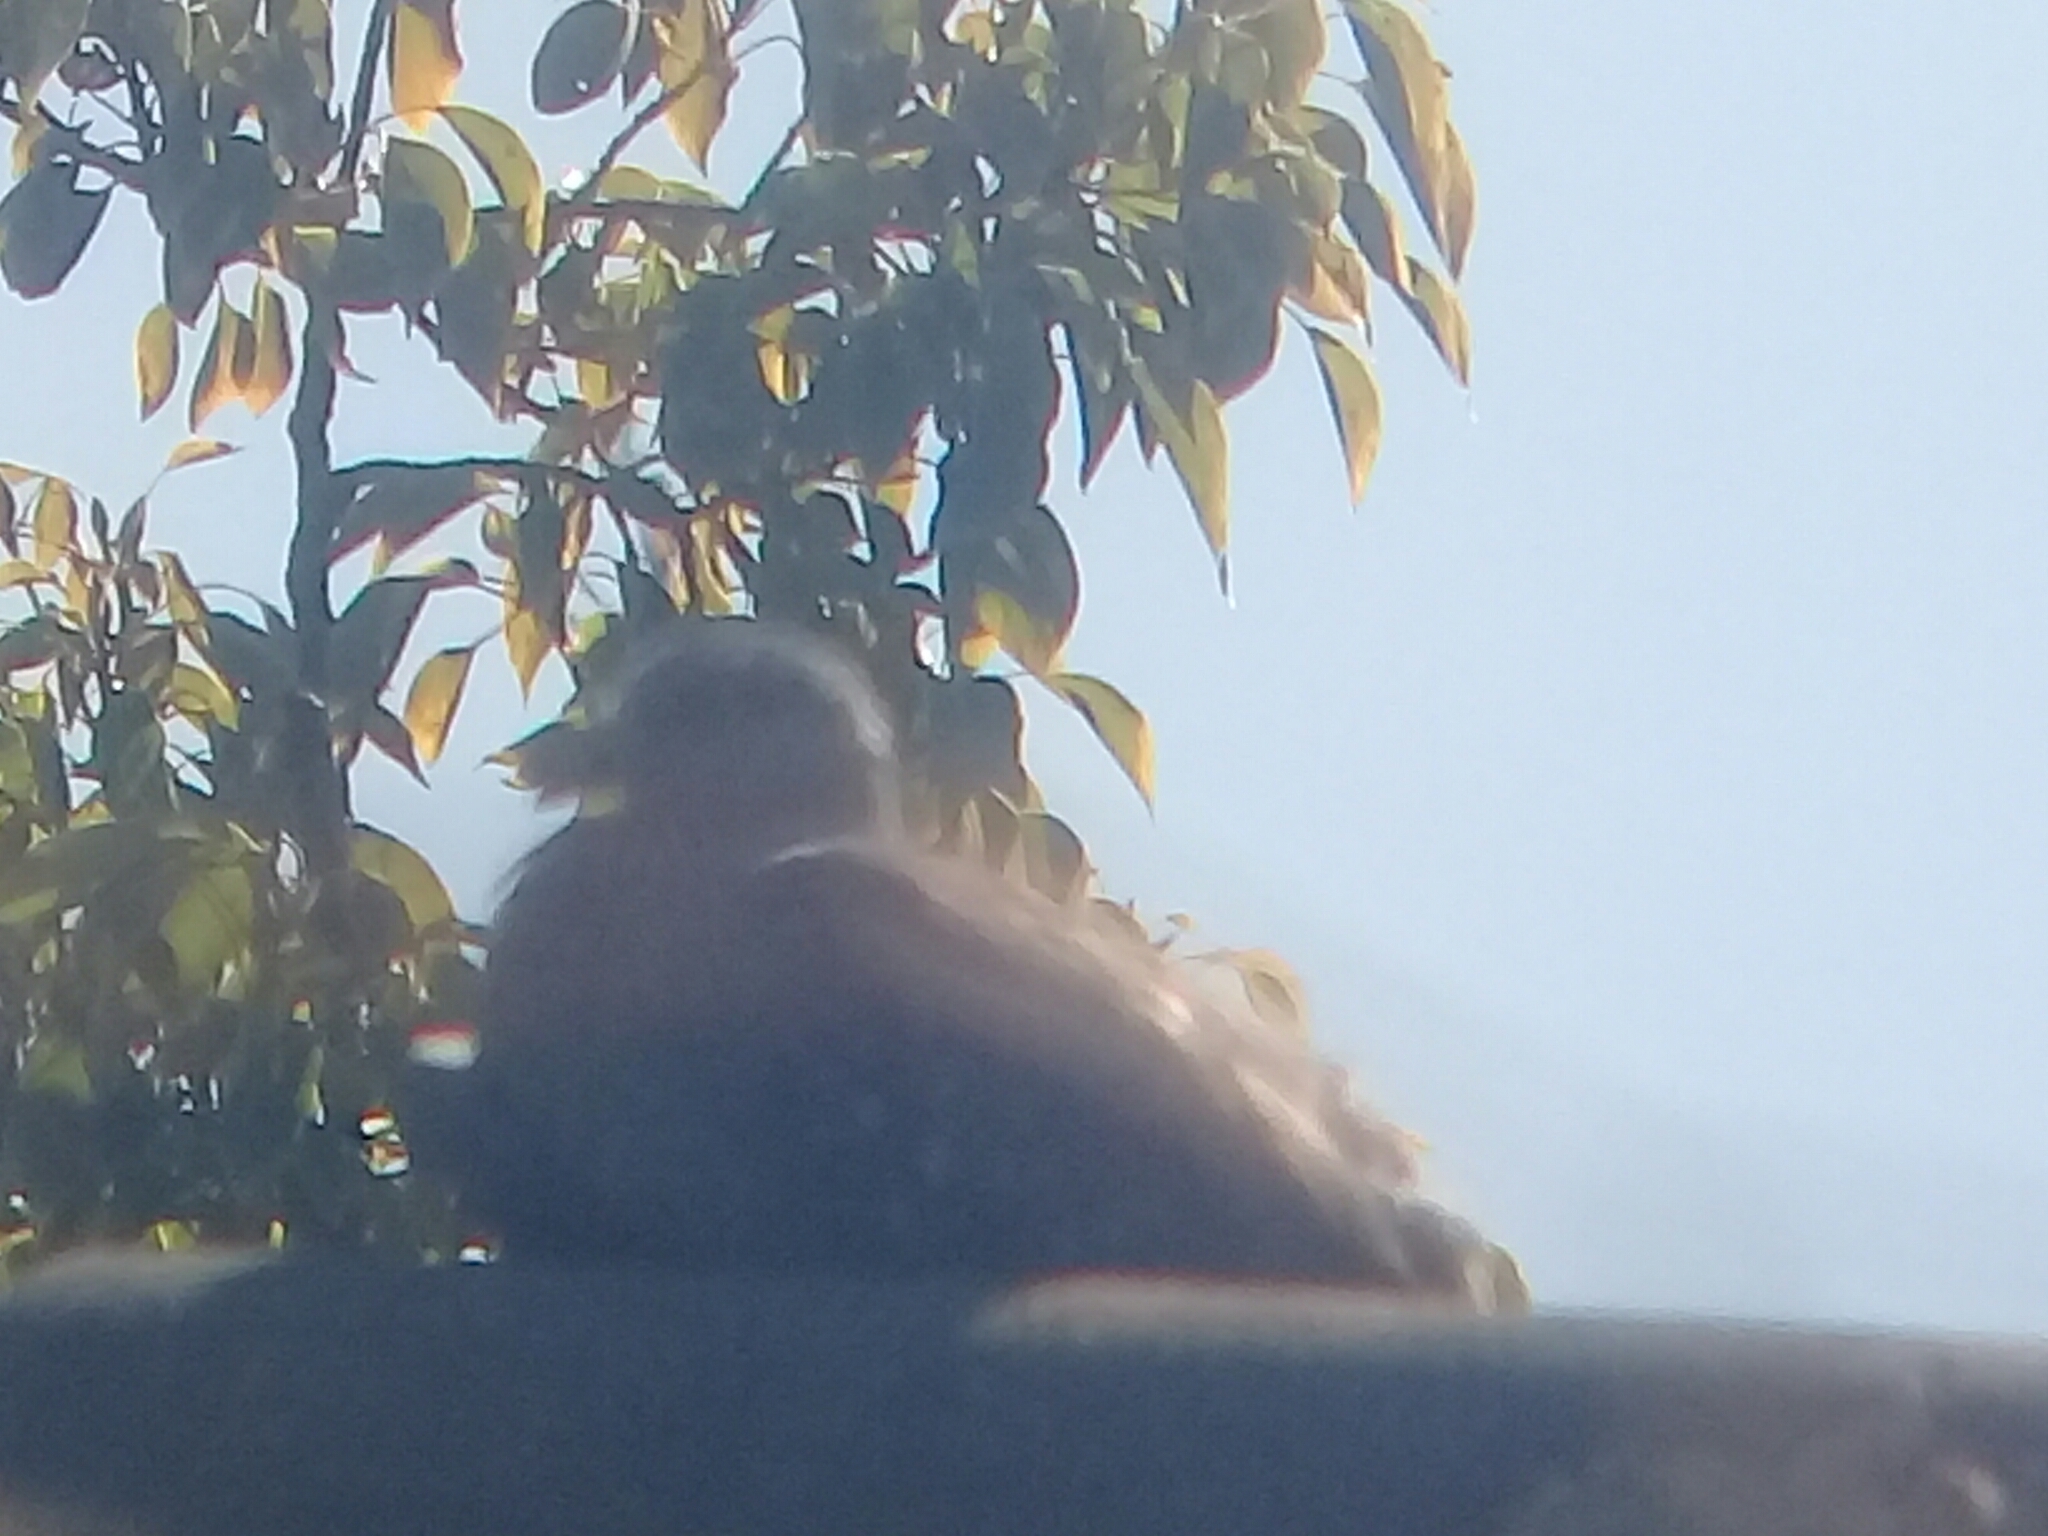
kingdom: Animalia
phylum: Chordata
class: Aves
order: Columbiformes
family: Columbidae
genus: Columba
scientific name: Columba guinea
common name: Speckled pigeon
